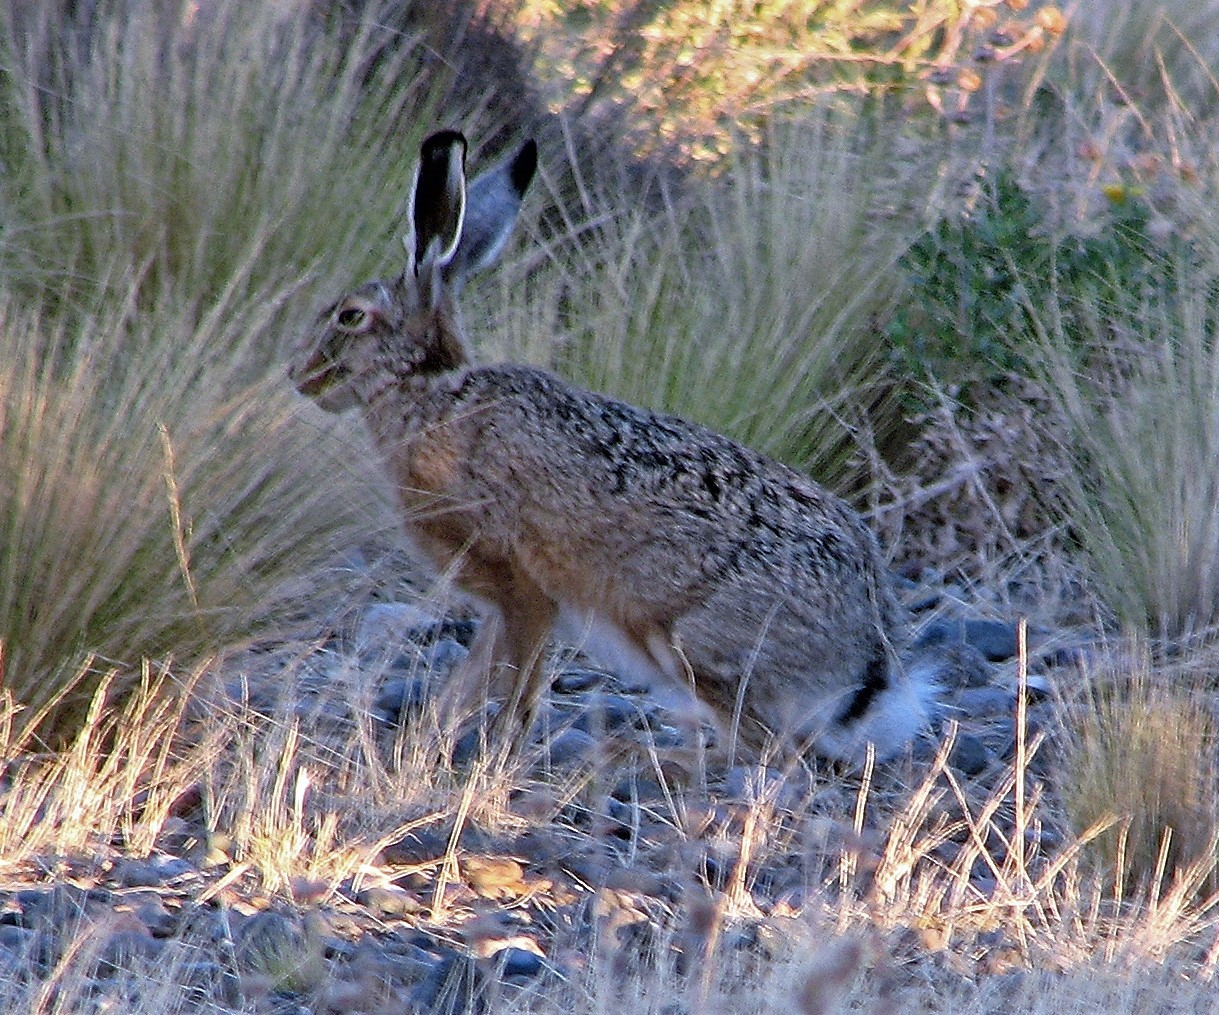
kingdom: Animalia
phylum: Chordata
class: Mammalia
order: Lagomorpha
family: Leporidae
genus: Lepus
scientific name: Lepus europaeus
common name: European hare
